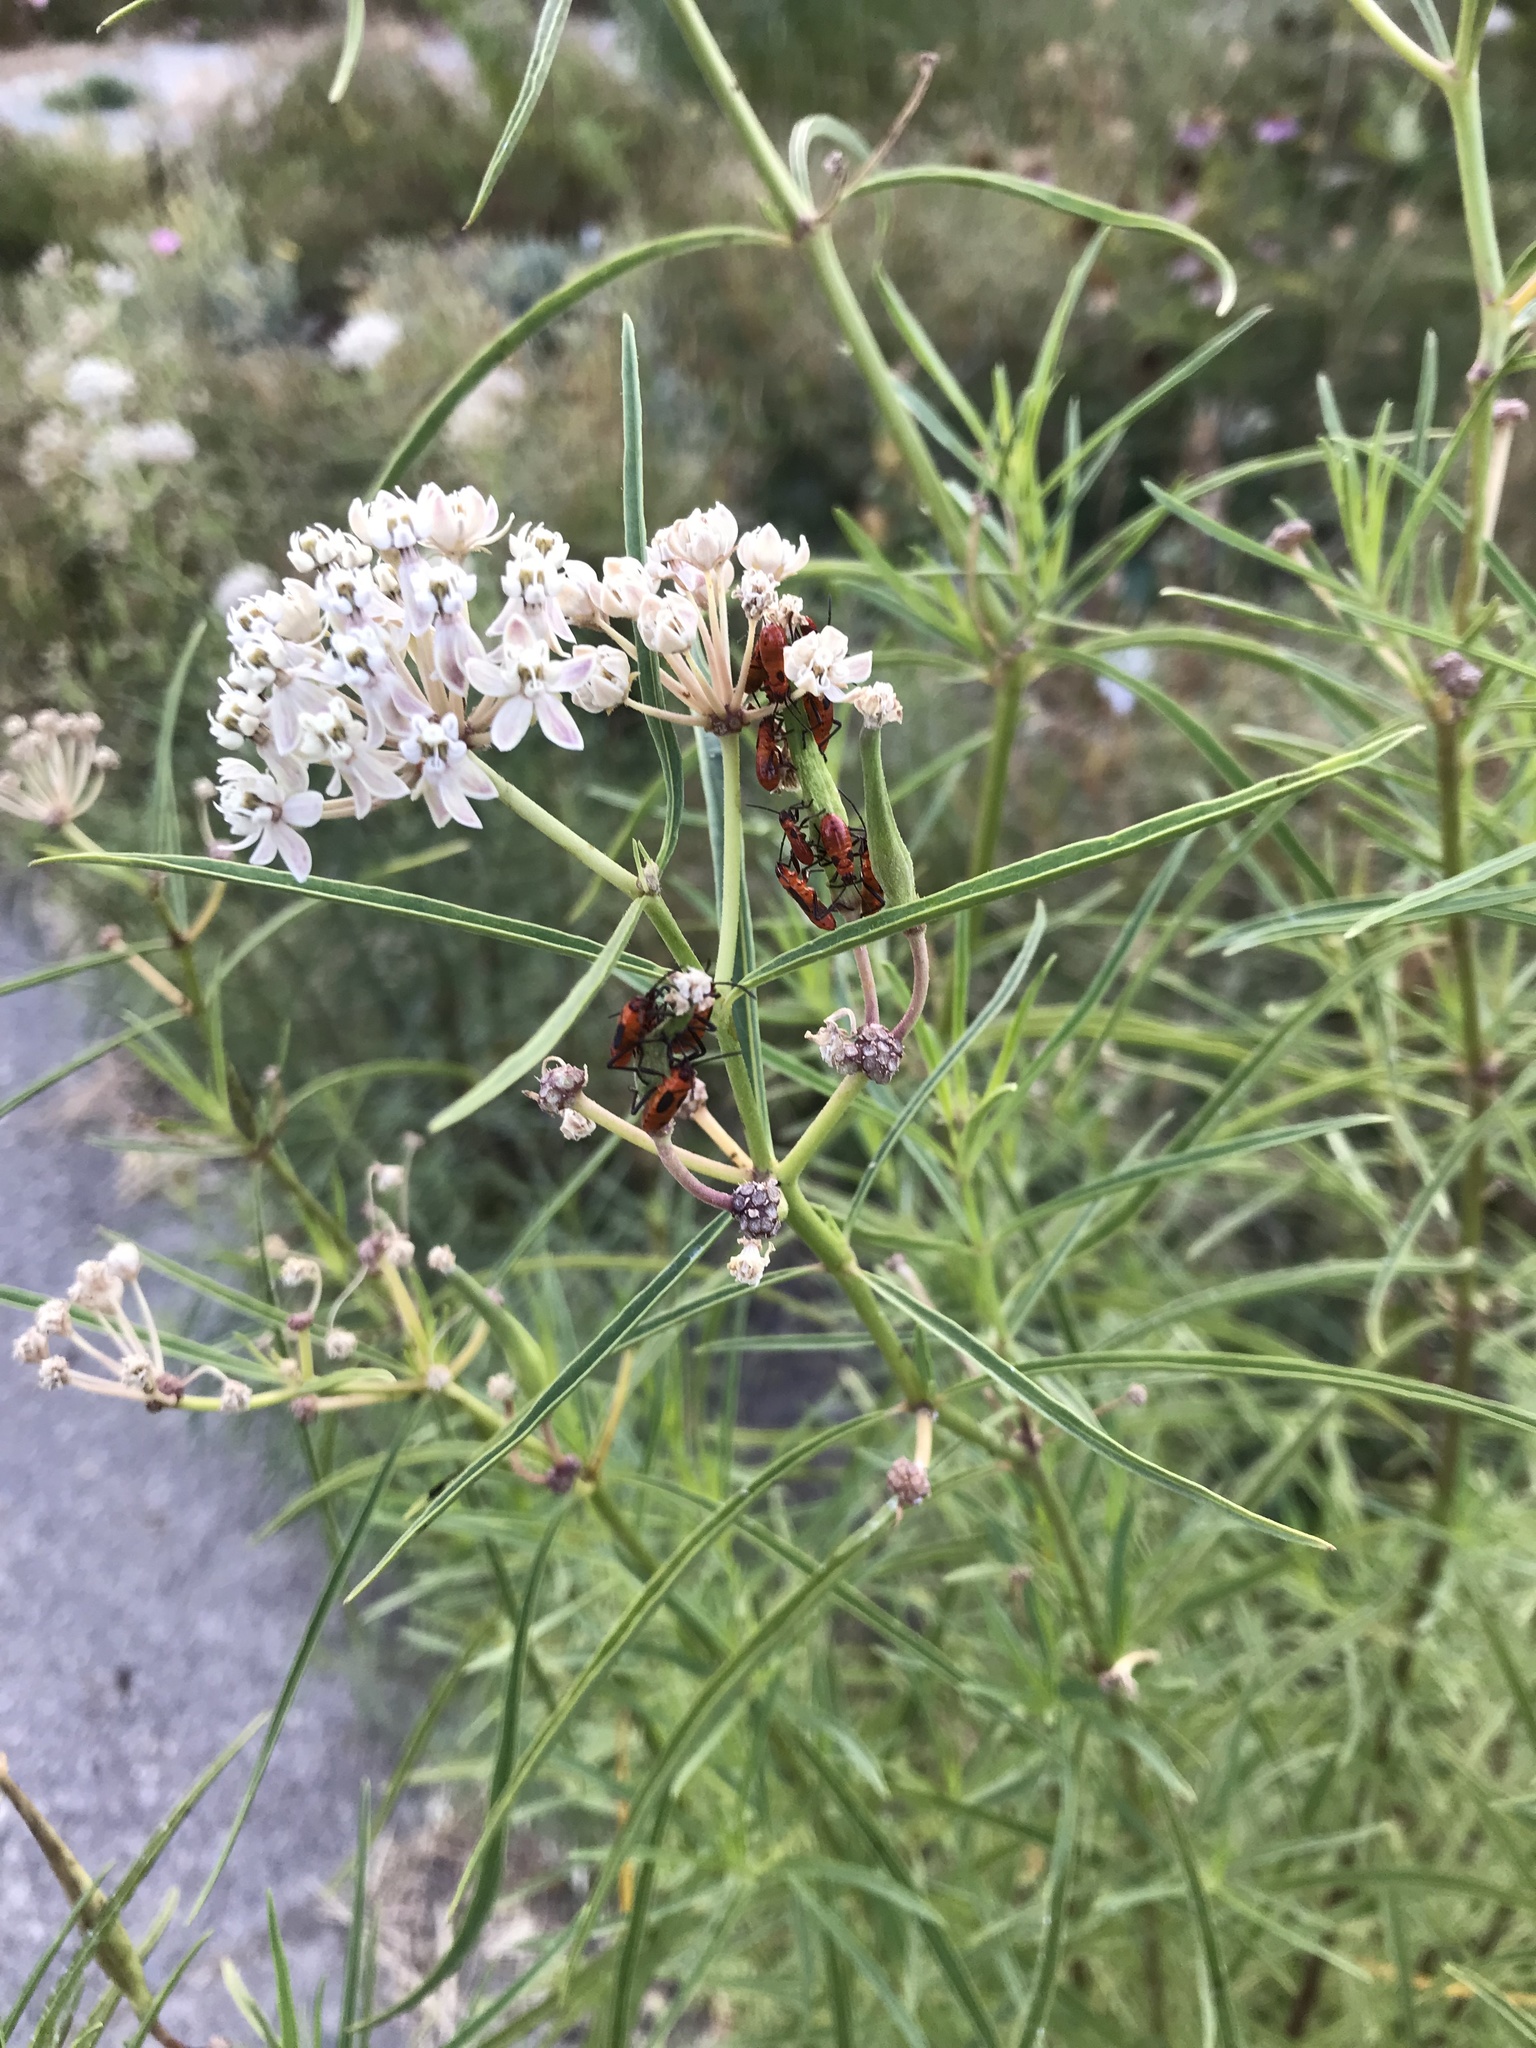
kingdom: Animalia
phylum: Arthropoda
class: Insecta
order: Hemiptera
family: Lygaeidae
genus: Oncopeltus
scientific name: Oncopeltus fasciatus
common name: Large milkweed bug
